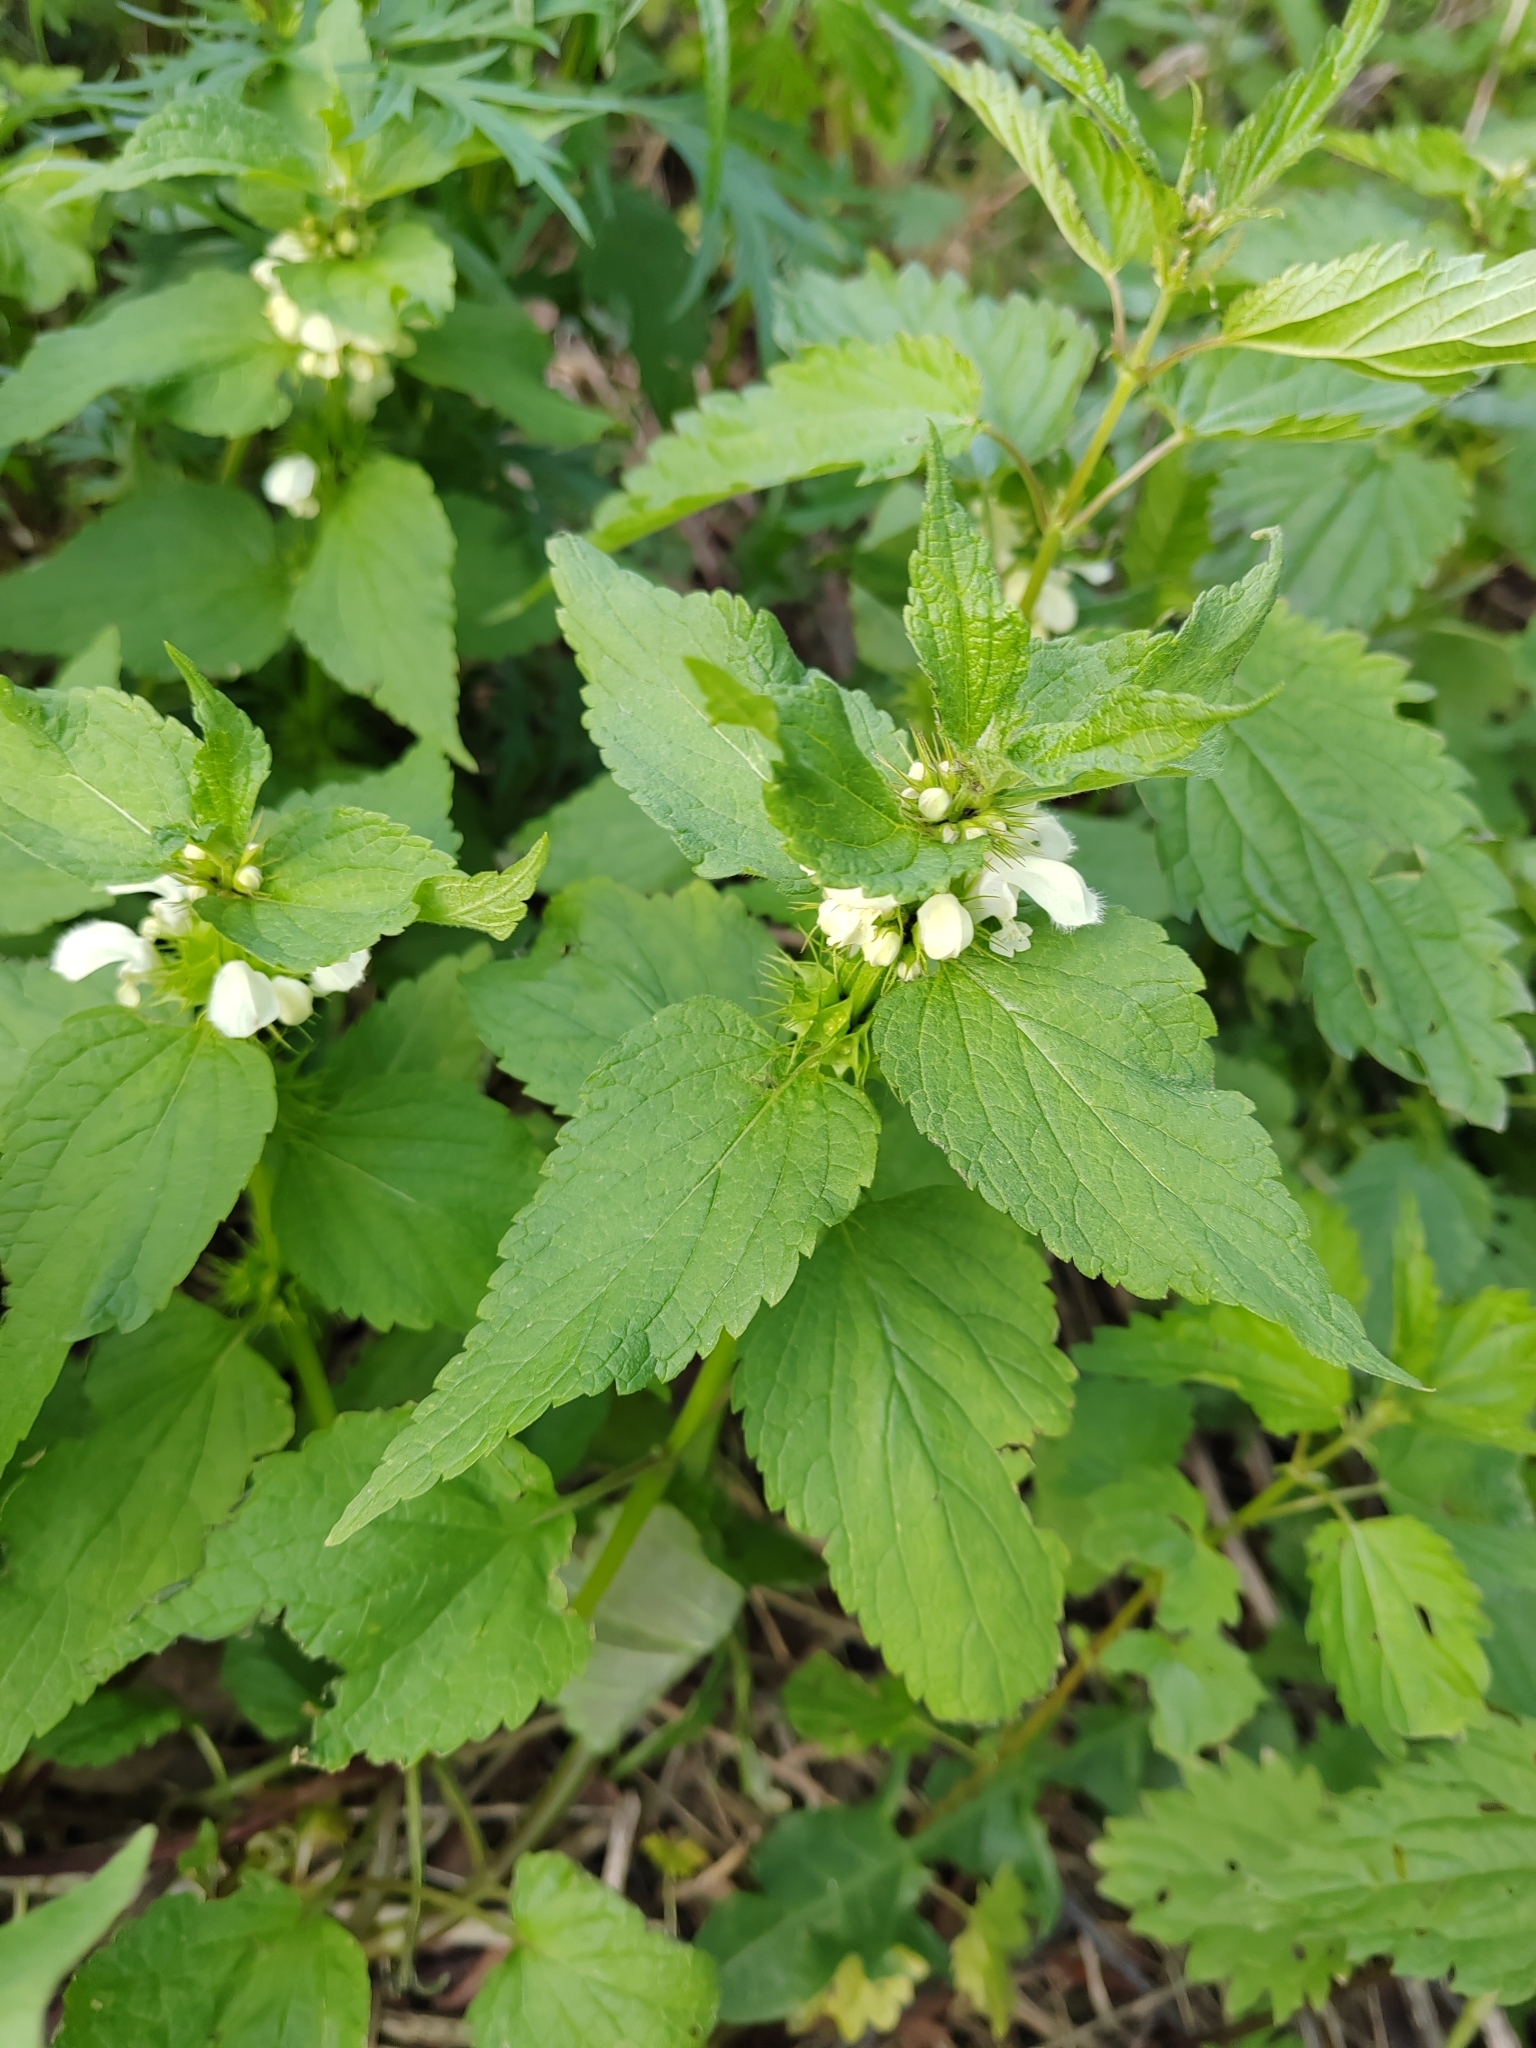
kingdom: Plantae
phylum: Tracheophyta
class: Magnoliopsida
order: Lamiales
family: Lamiaceae
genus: Lamium
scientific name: Lamium album
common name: White dead-nettle
